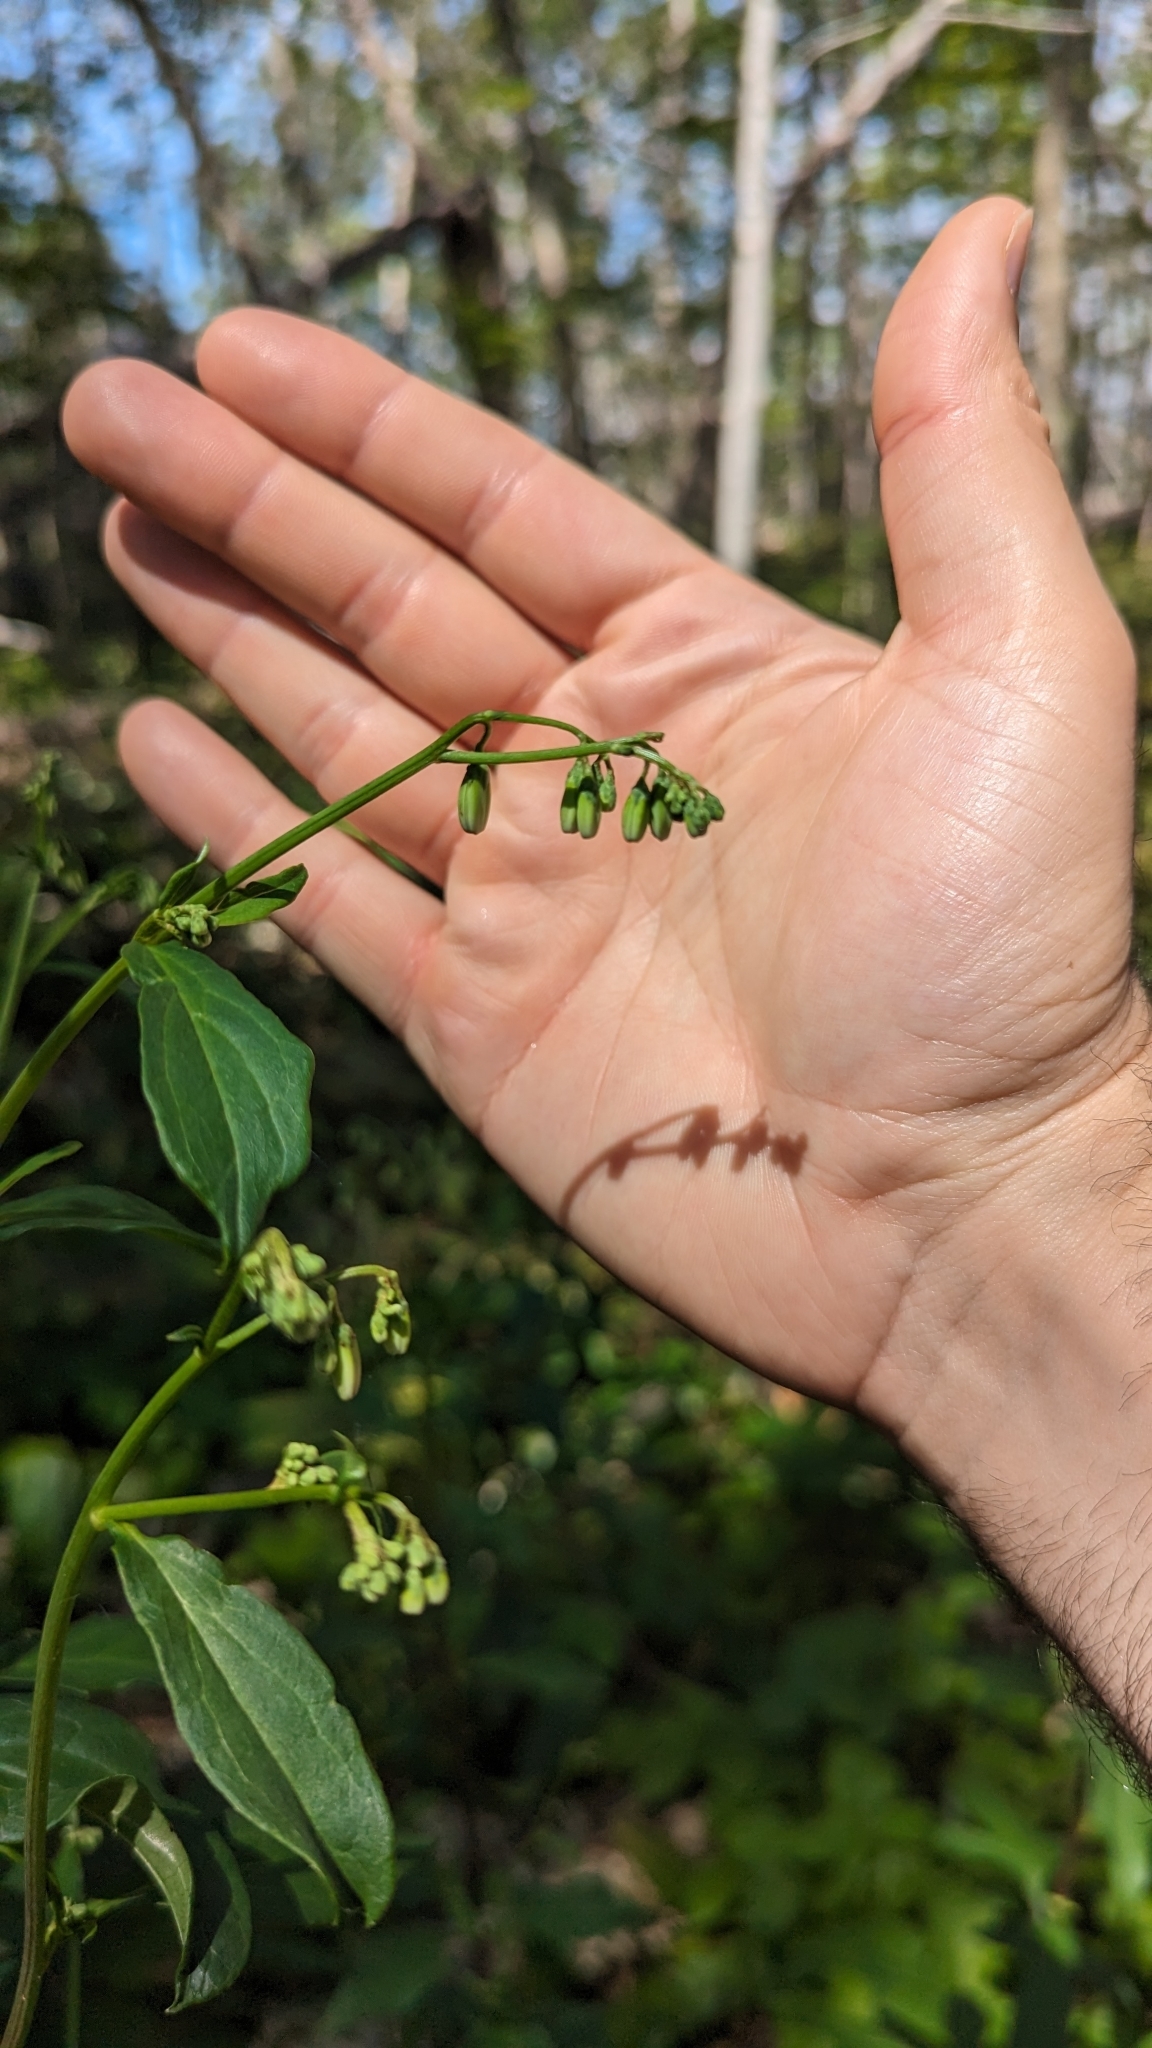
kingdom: Plantae
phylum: Tracheophyta
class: Magnoliopsida
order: Asterales
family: Asteraceae
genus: Nabalus
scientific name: Nabalus trifoliolatus
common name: Gall-of-the-earth
